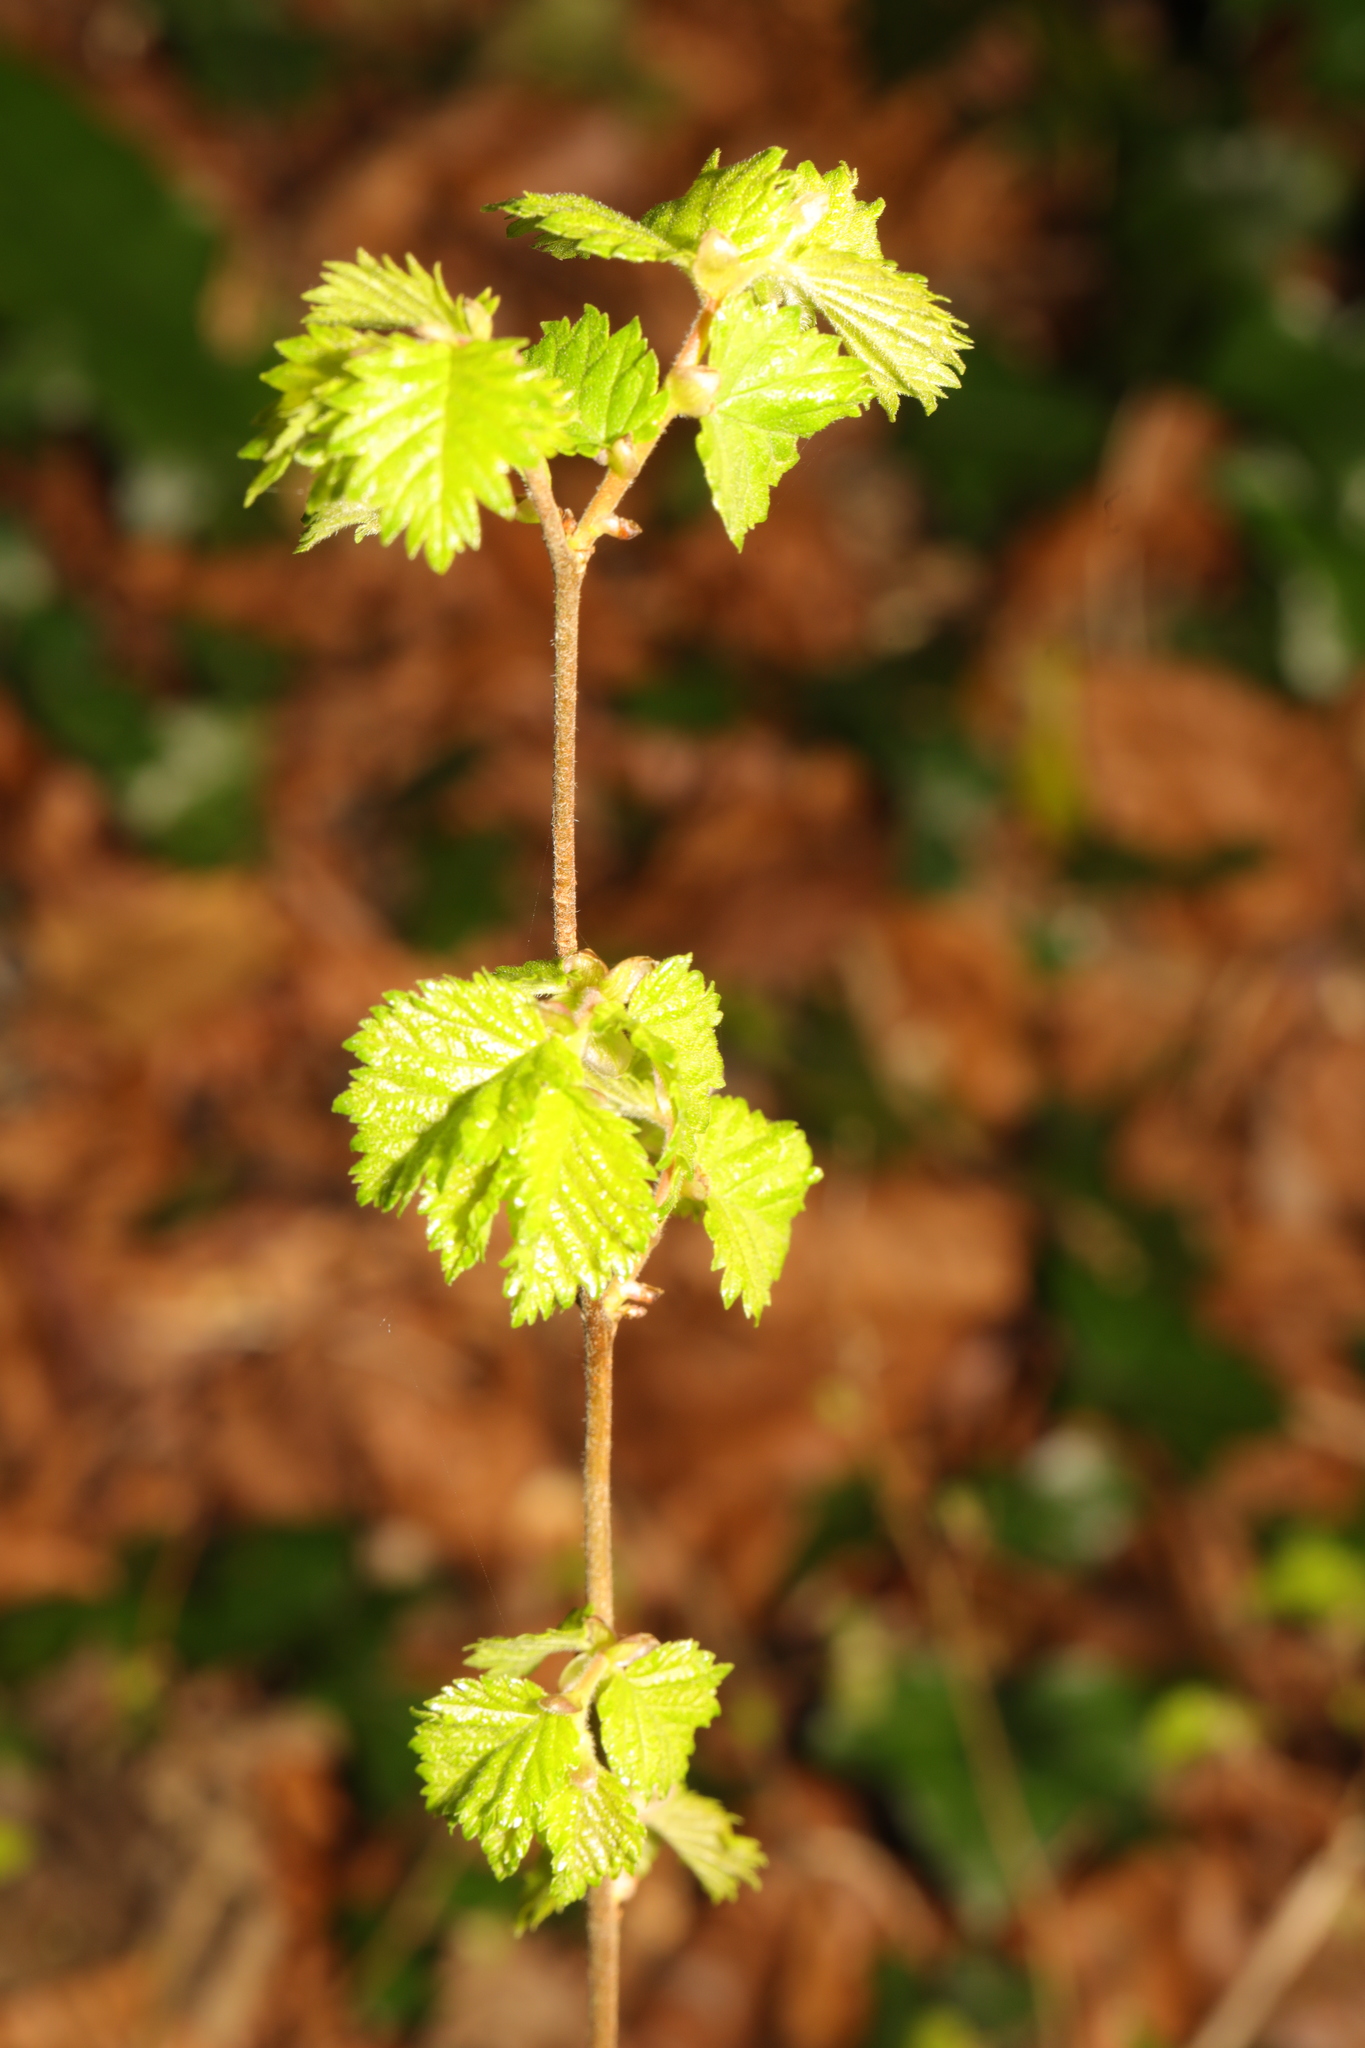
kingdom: Plantae
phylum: Tracheophyta
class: Magnoliopsida
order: Fagales
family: Betulaceae
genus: Betula
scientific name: Betula pubescens
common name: Downy birch
